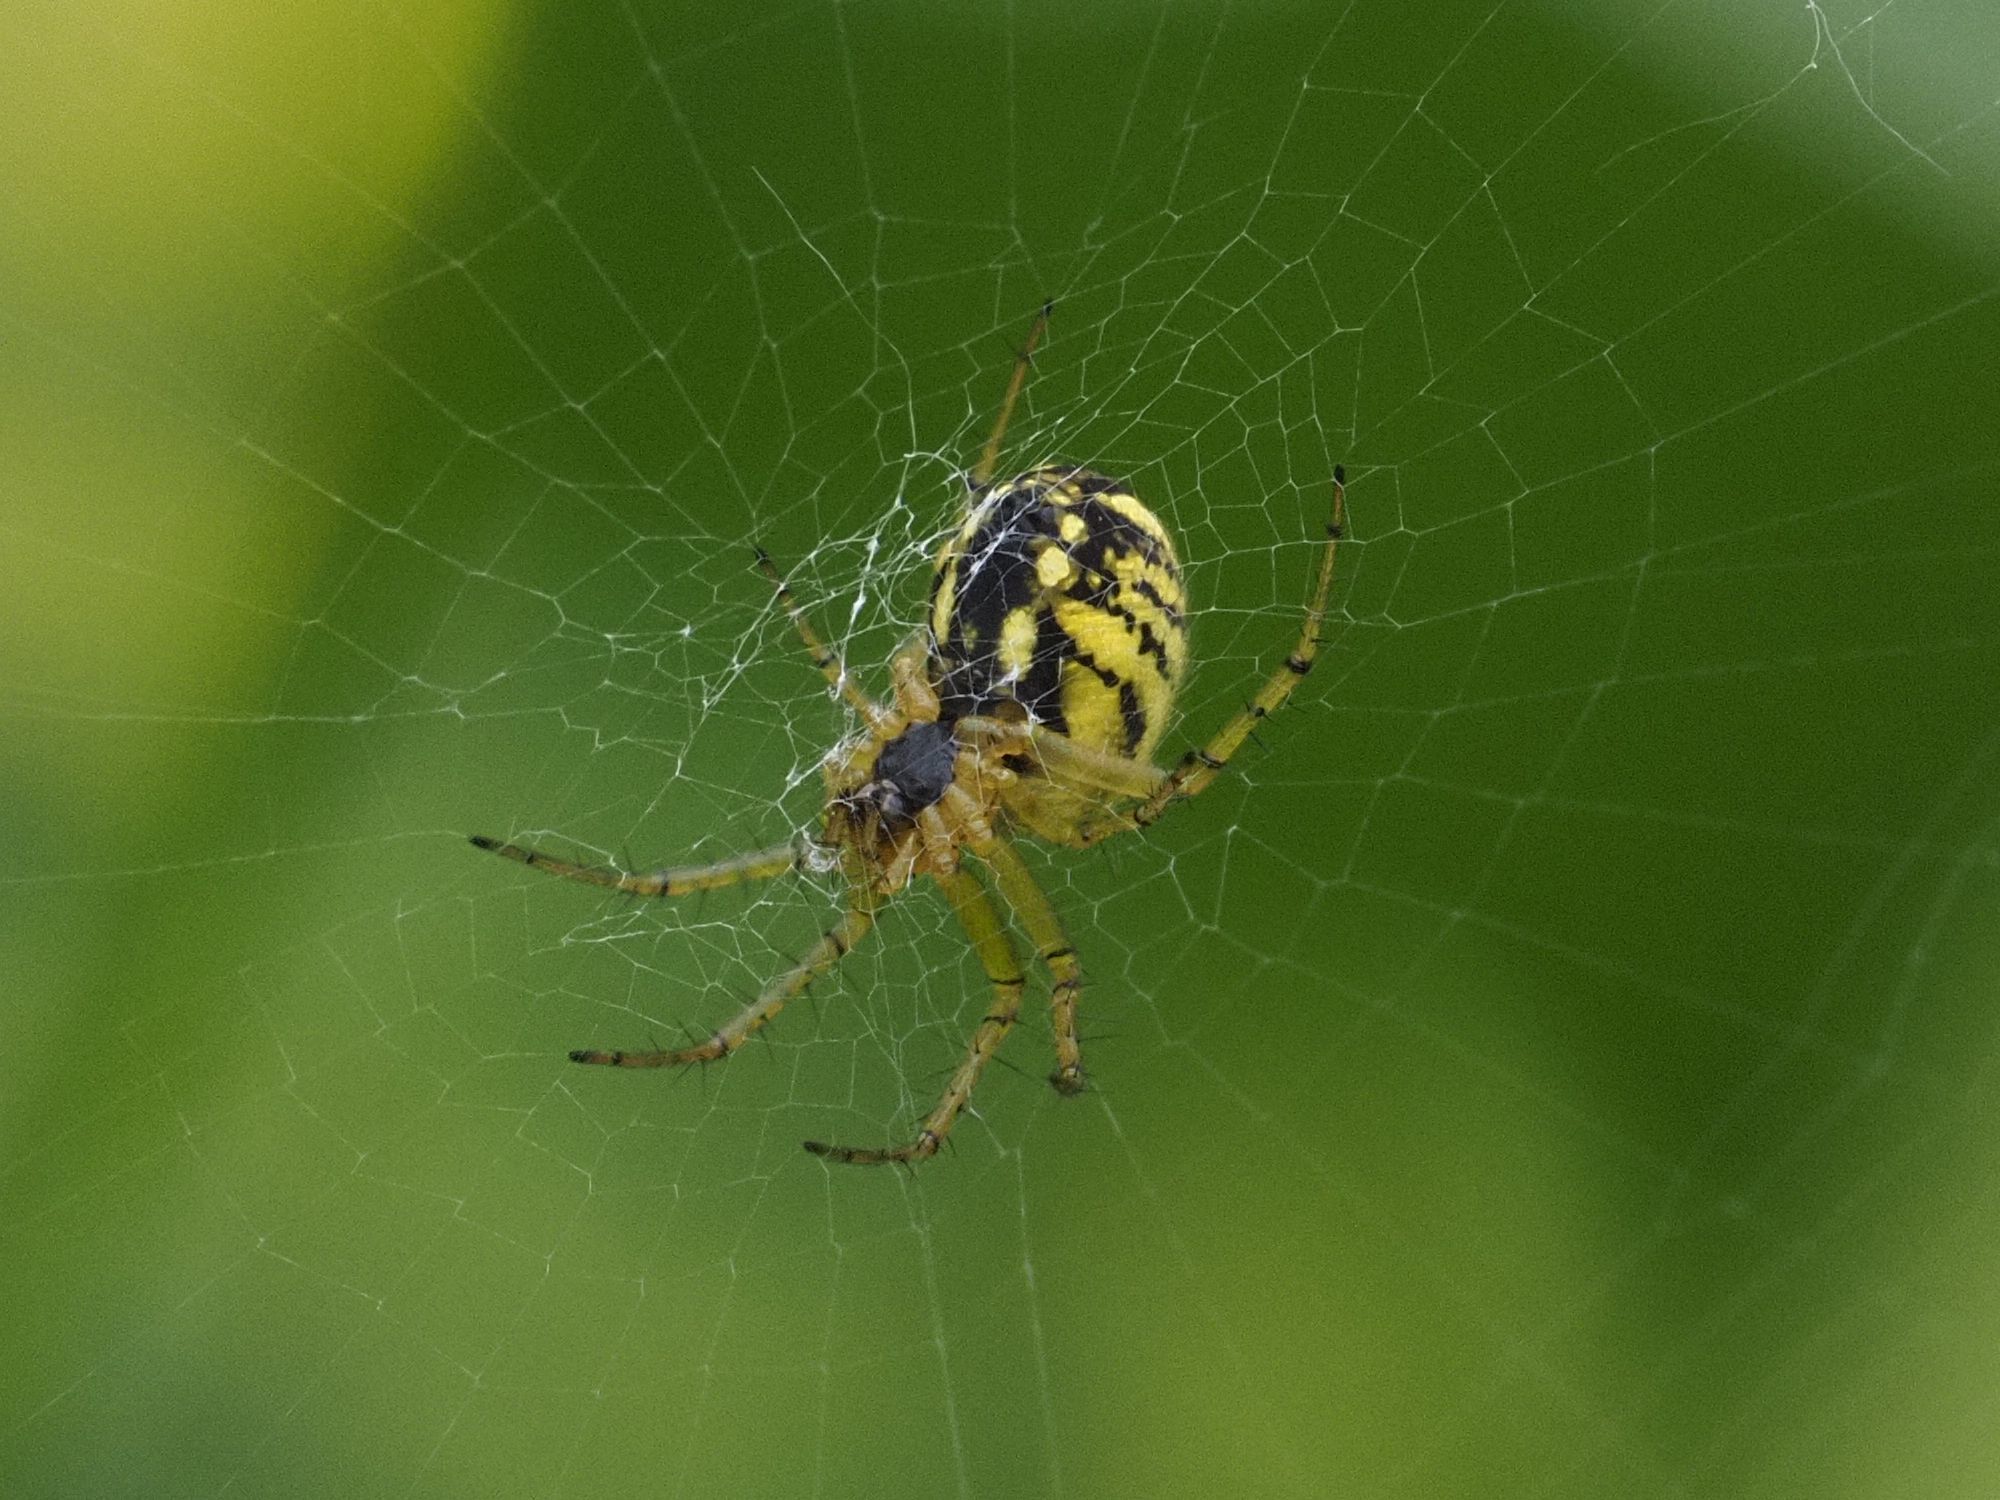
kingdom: Animalia
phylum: Arthropoda
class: Arachnida
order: Araneae
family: Araneidae
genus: Mangora
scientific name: Mangora acalypha
